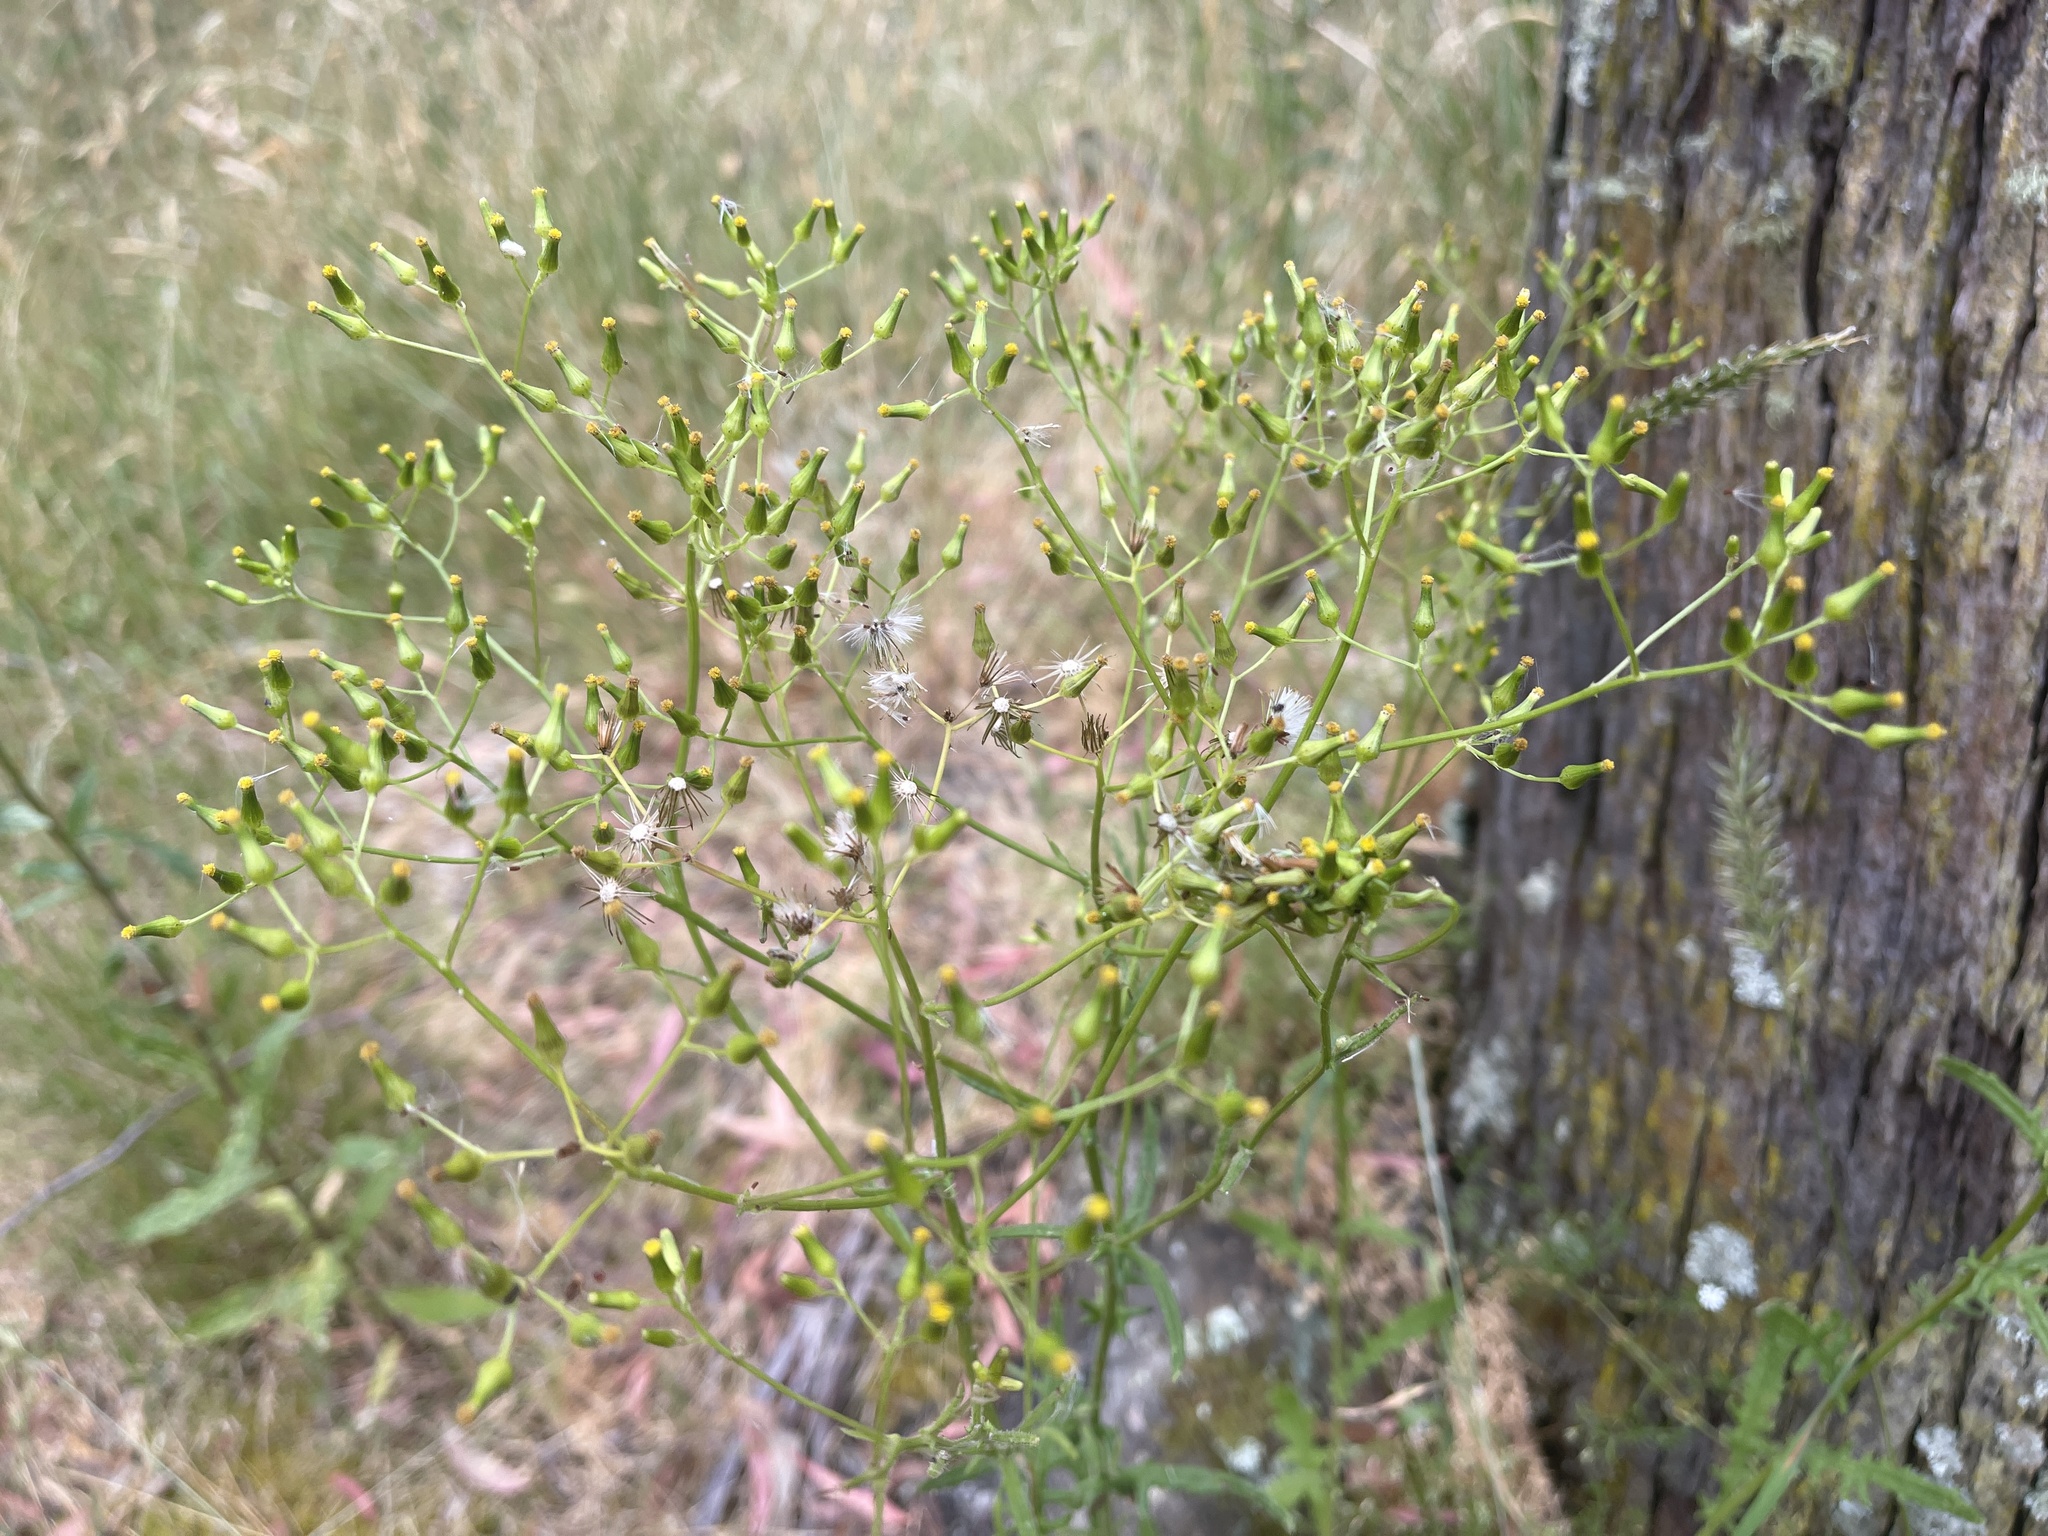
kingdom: Plantae
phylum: Tracheophyta
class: Magnoliopsida
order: Asterales
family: Asteraceae
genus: Senecio
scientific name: Senecio hispidulus
